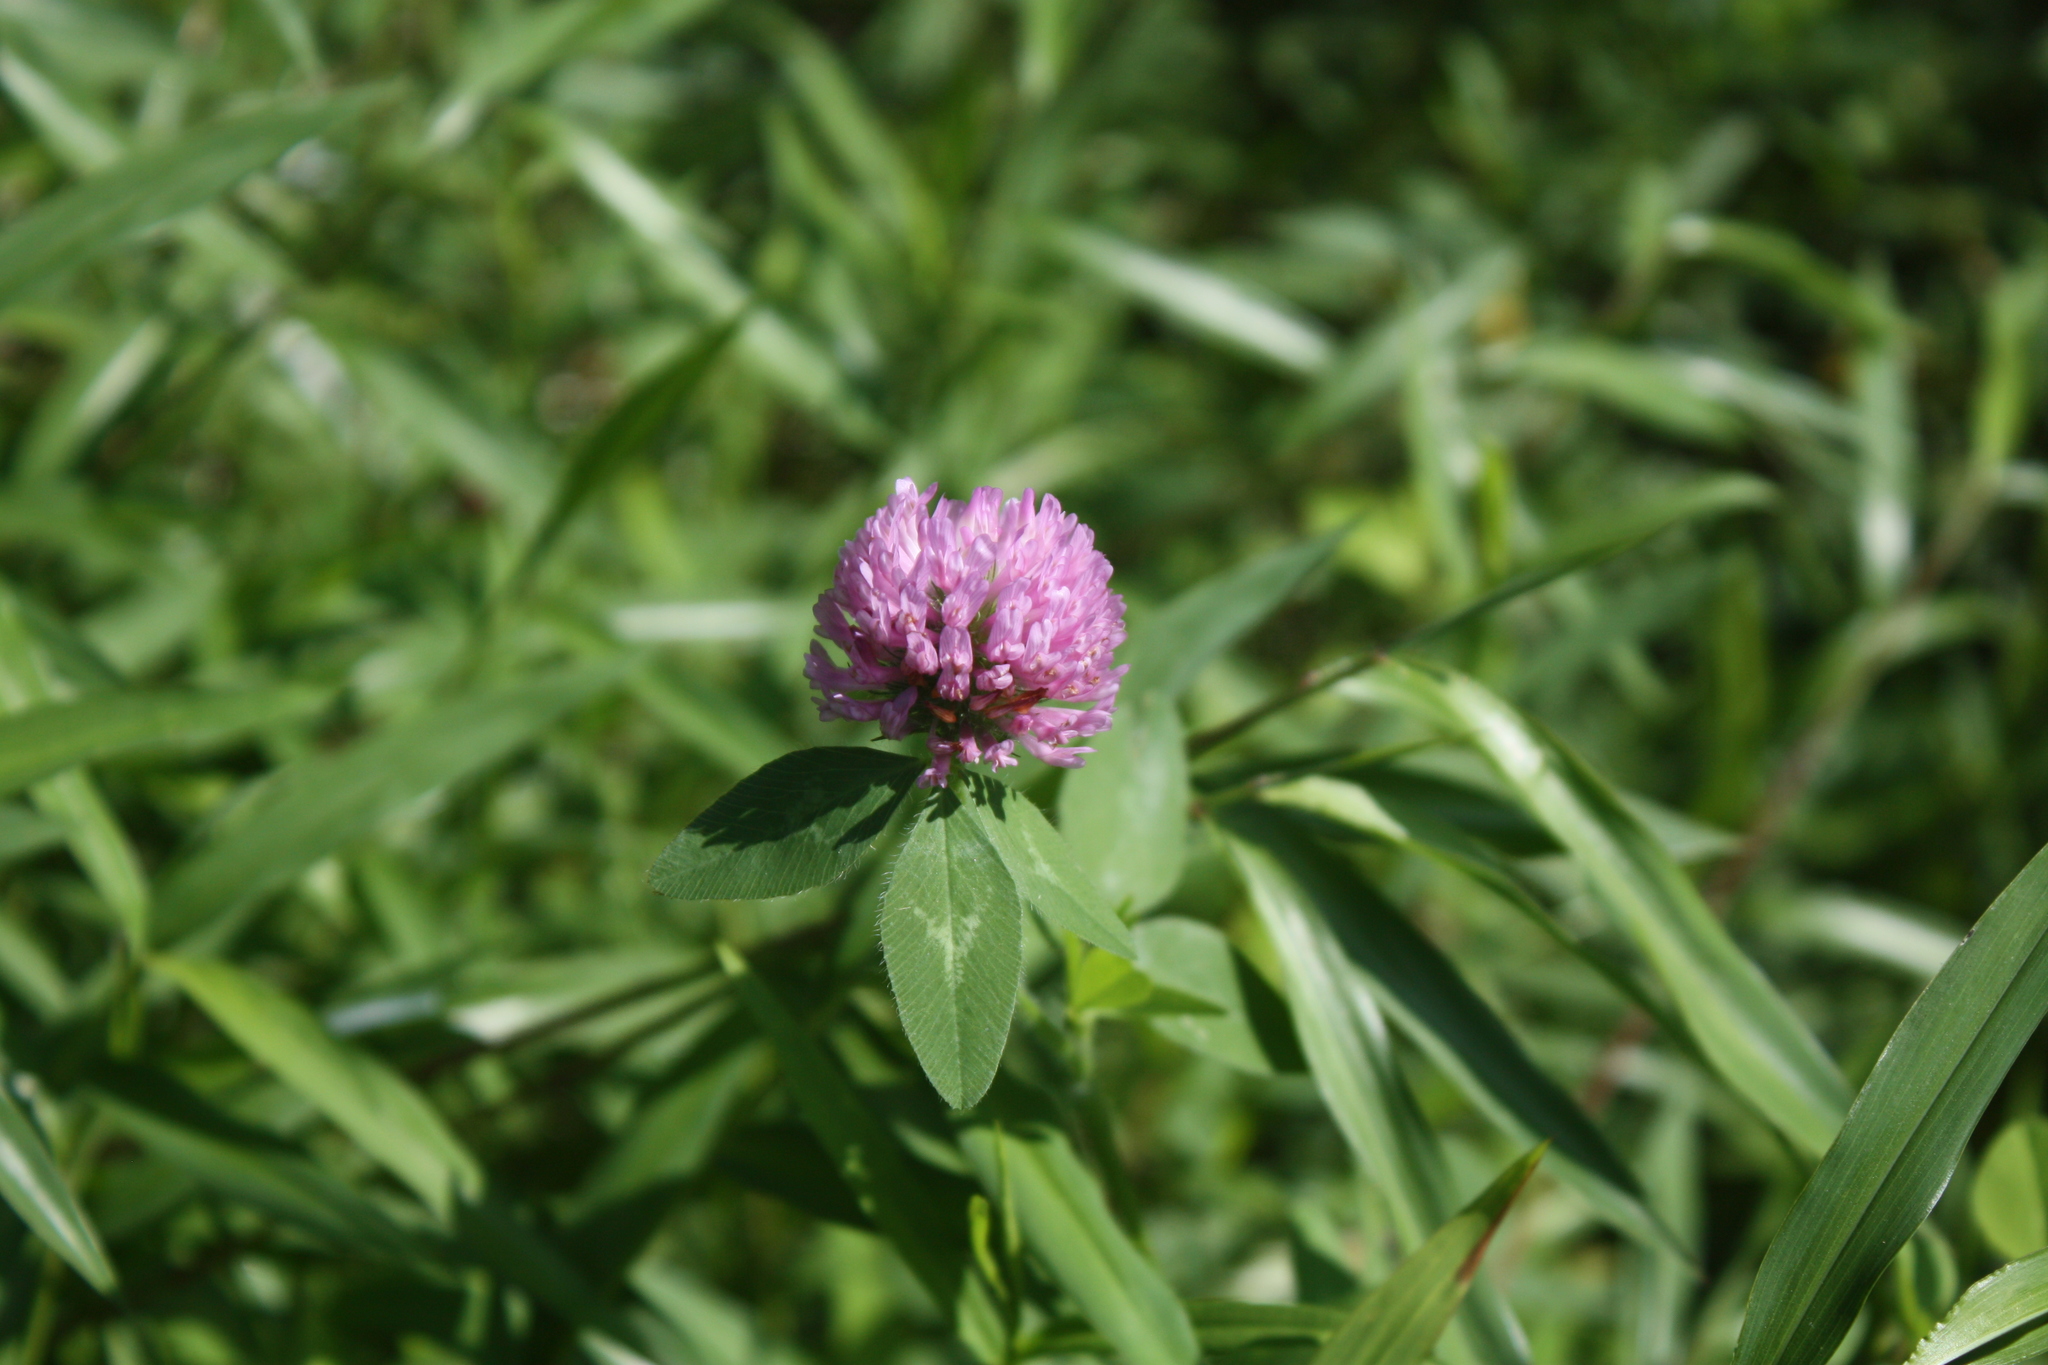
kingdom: Plantae
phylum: Tracheophyta
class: Magnoliopsida
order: Fabales
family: Fabaceae
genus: Trifolium
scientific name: Trifolium pratense
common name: Red clover
